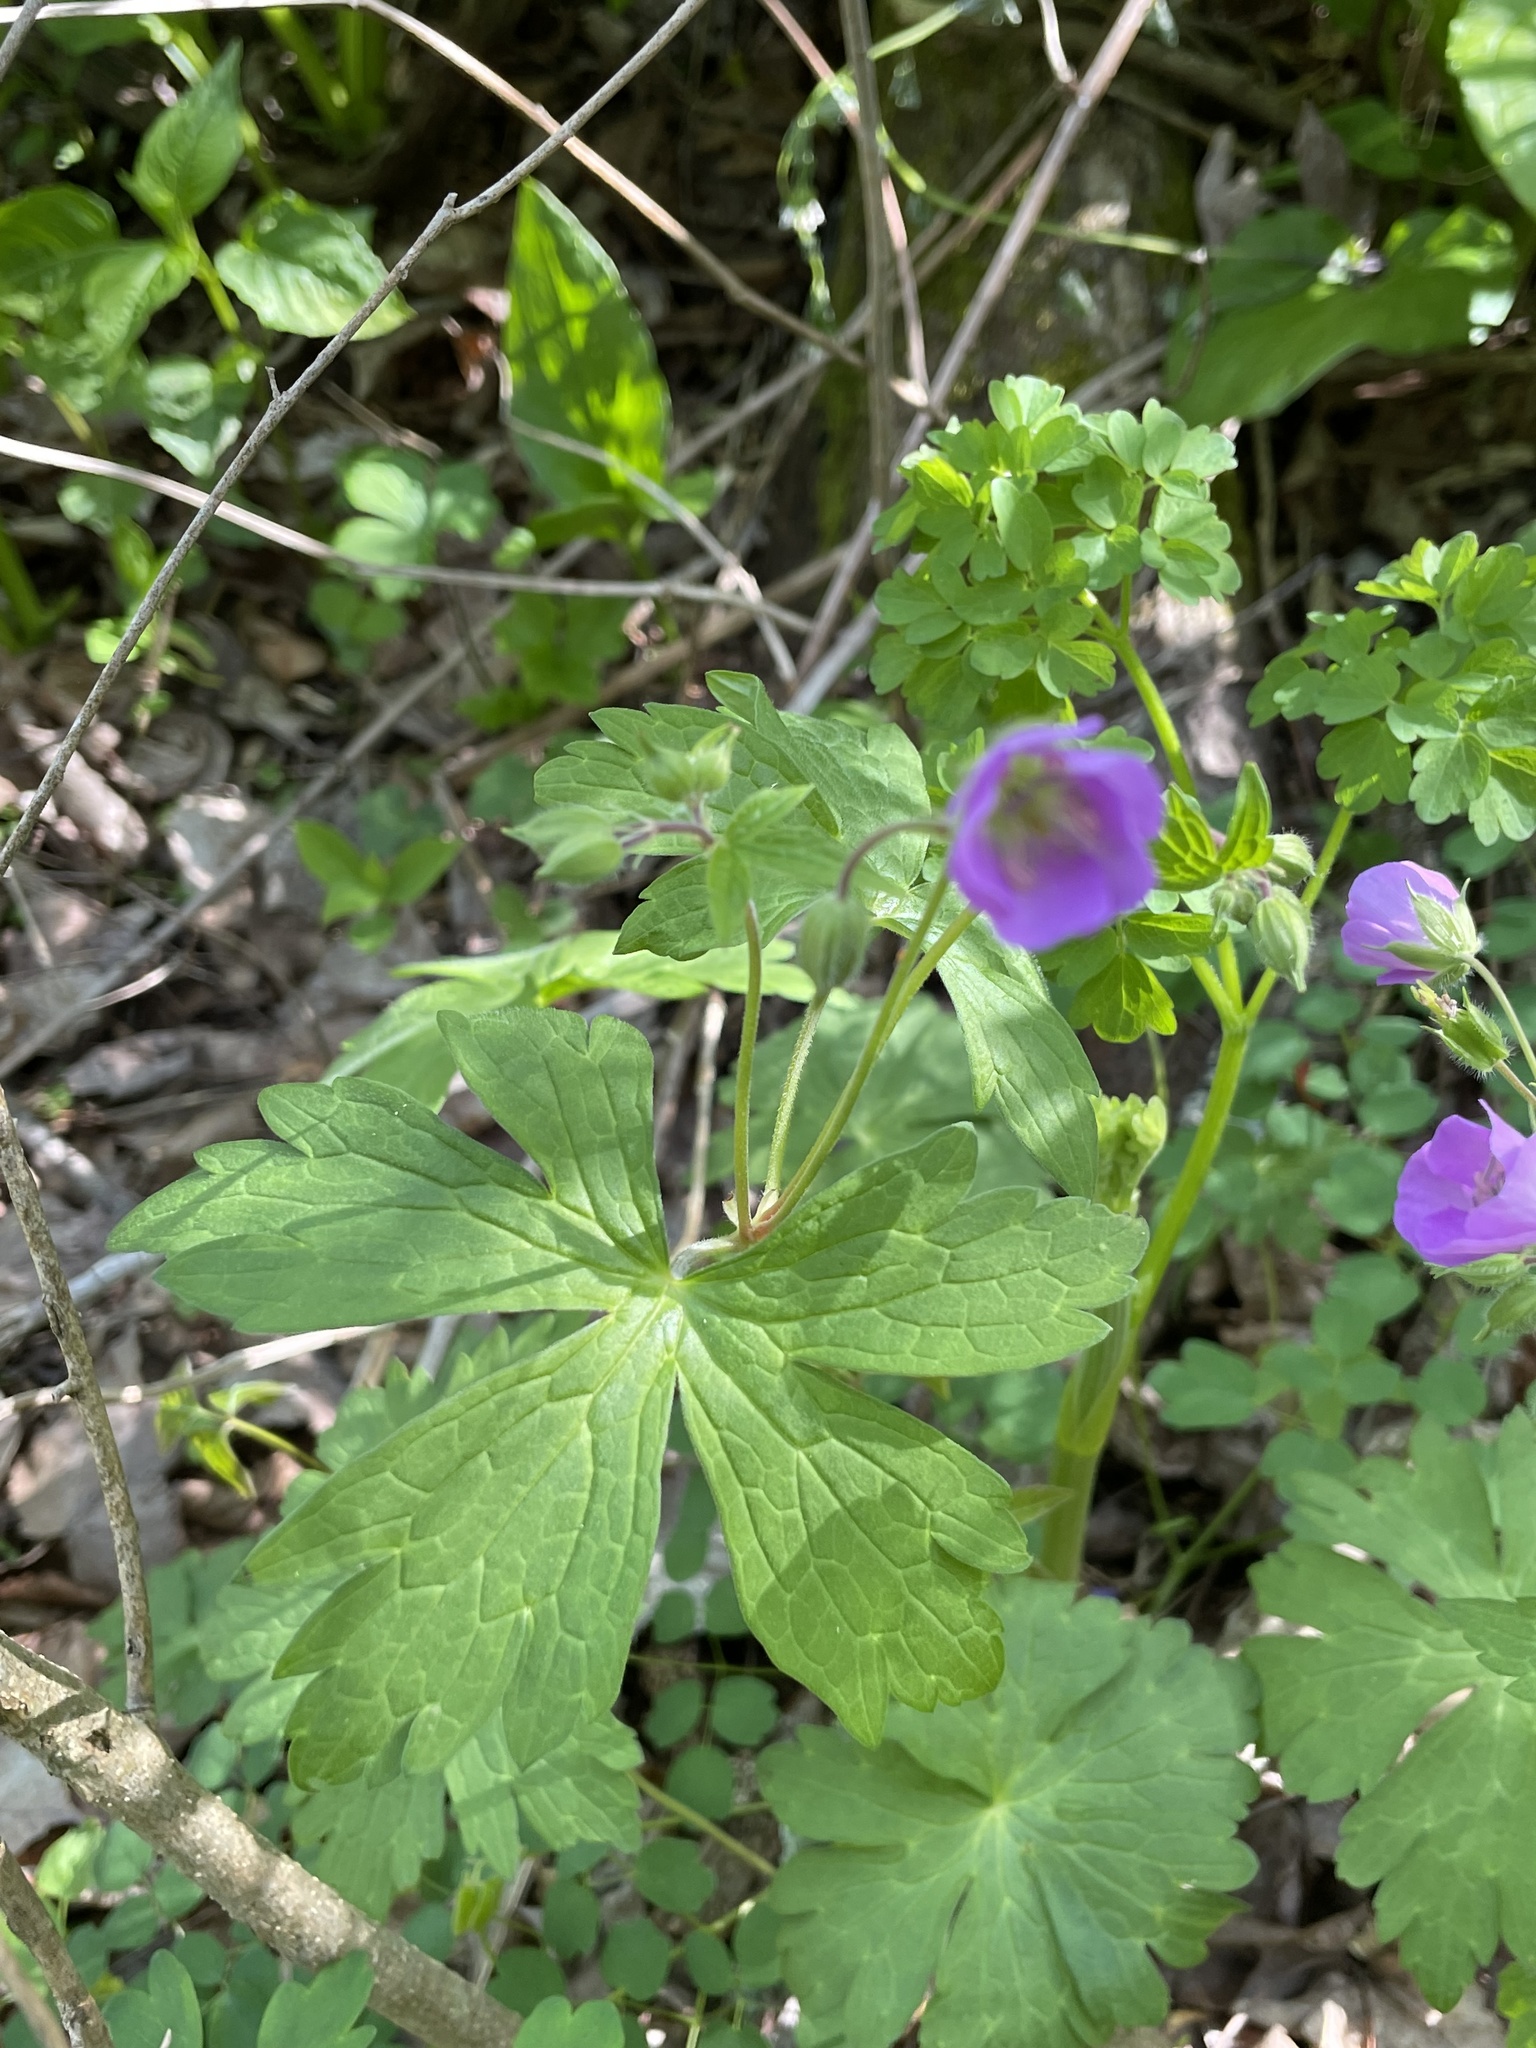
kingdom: Plantae
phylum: Tracheophyta
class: Magnoliopsida
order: Geraniales
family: Geraniaceae
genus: Geranium
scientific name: Geranium maculatum
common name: Spotted geranium
